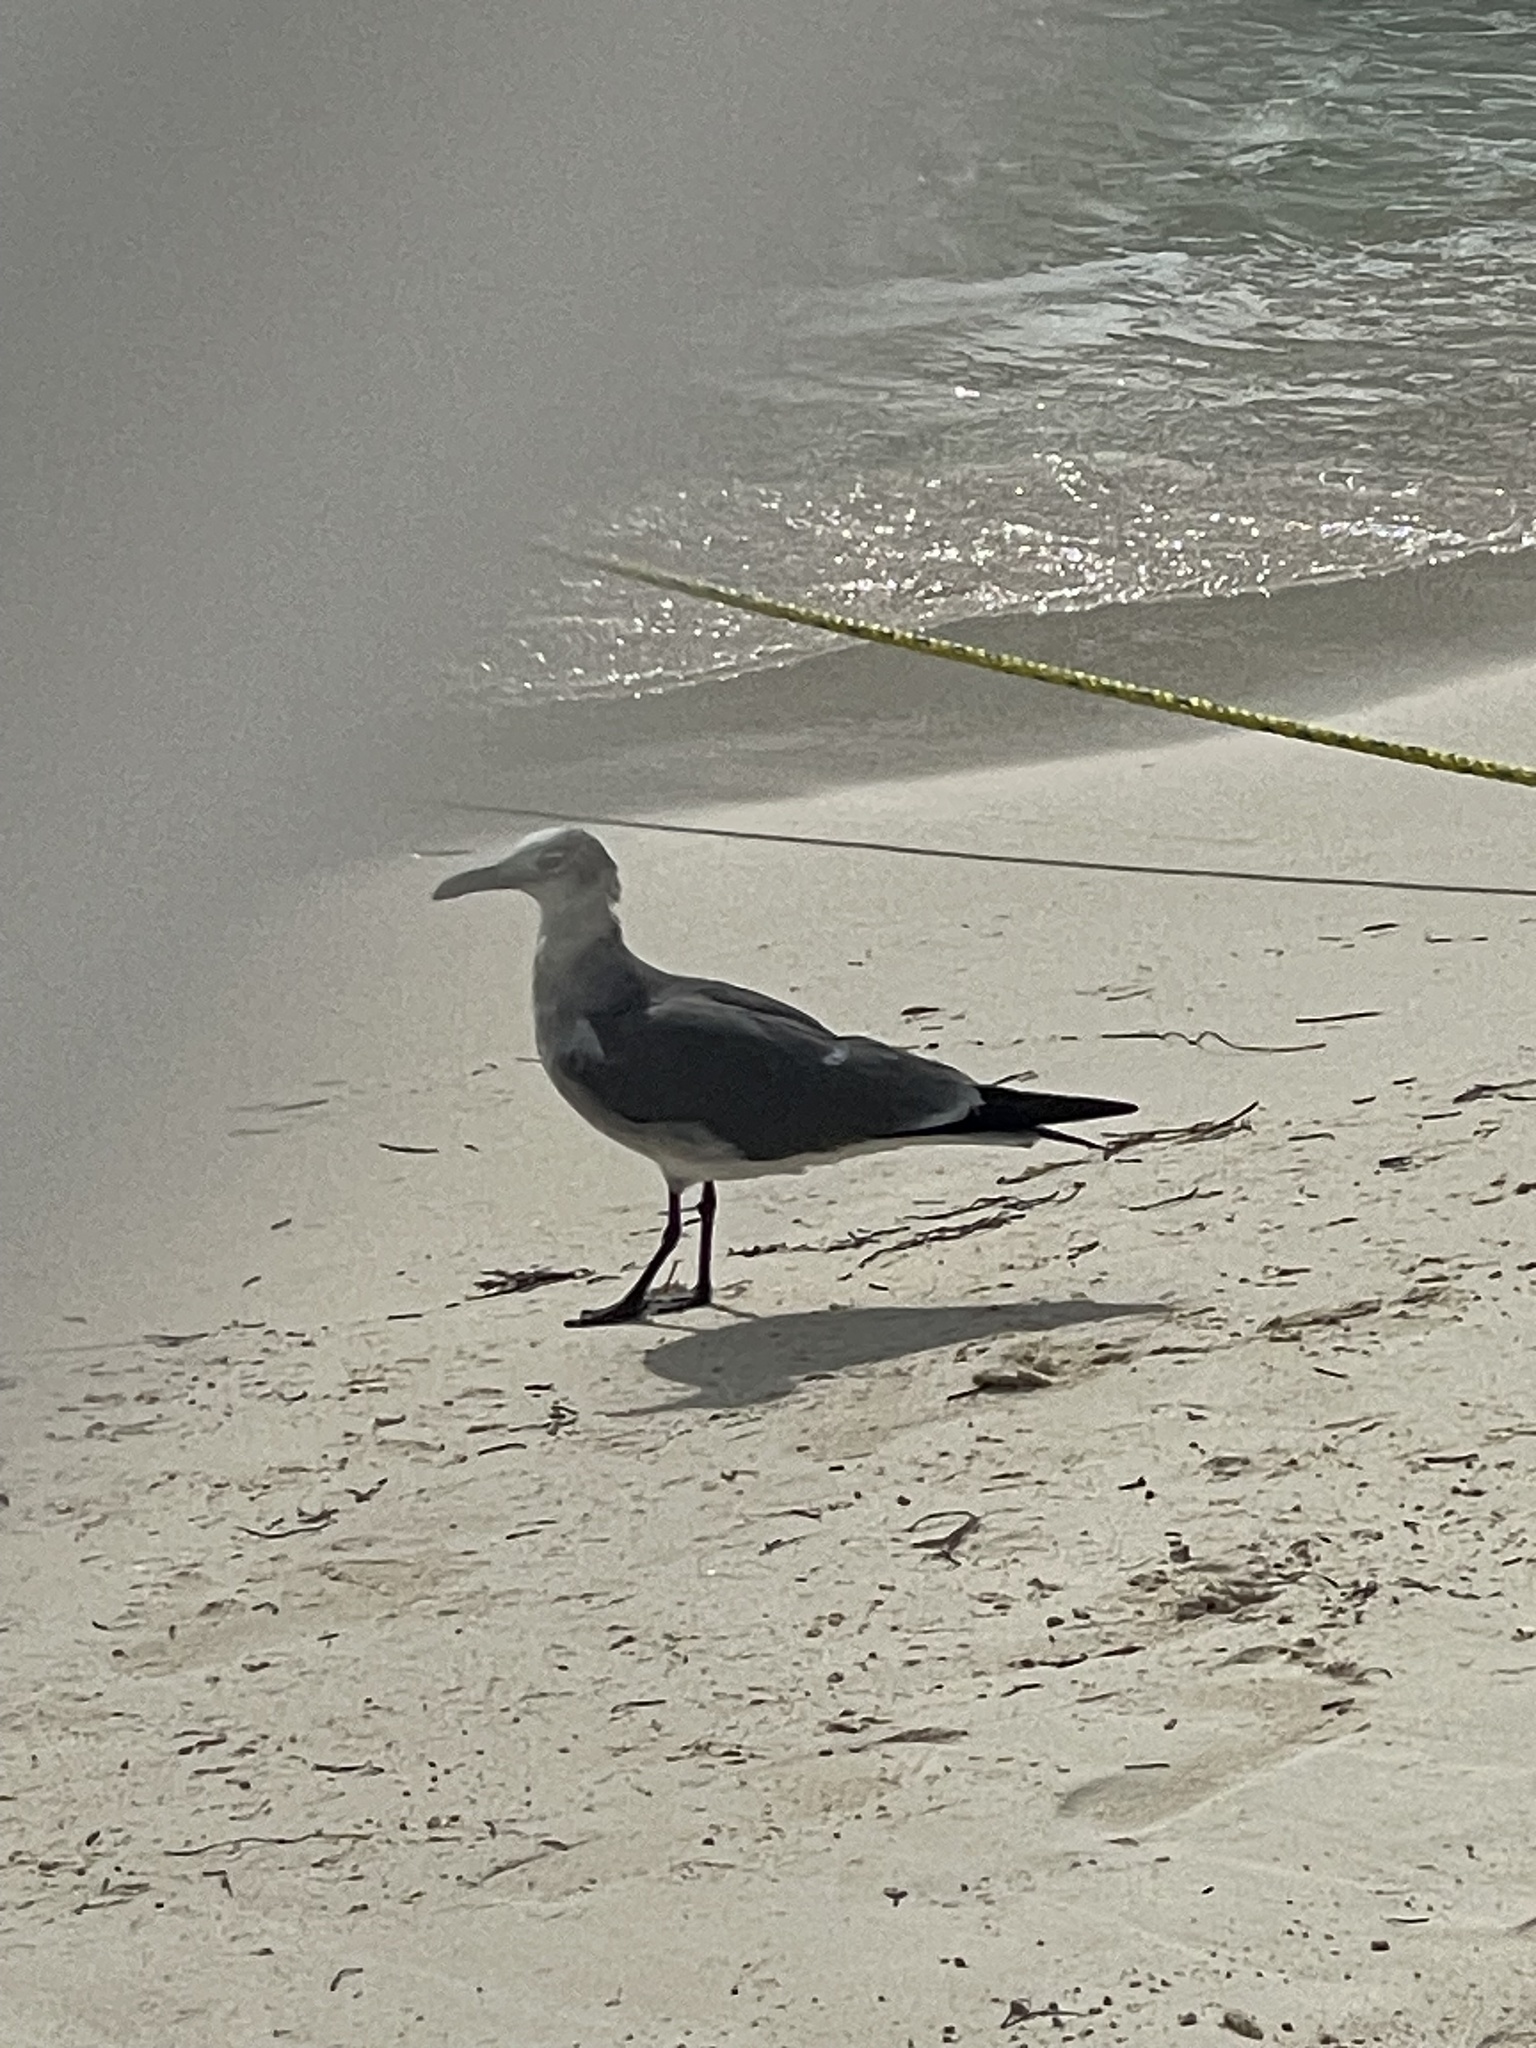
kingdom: Animalia
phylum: Chordata
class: Aves
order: Charadriiformes
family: Laridae
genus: Leucophaeus
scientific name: Leucophaeus atricilla
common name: Laughing gull
